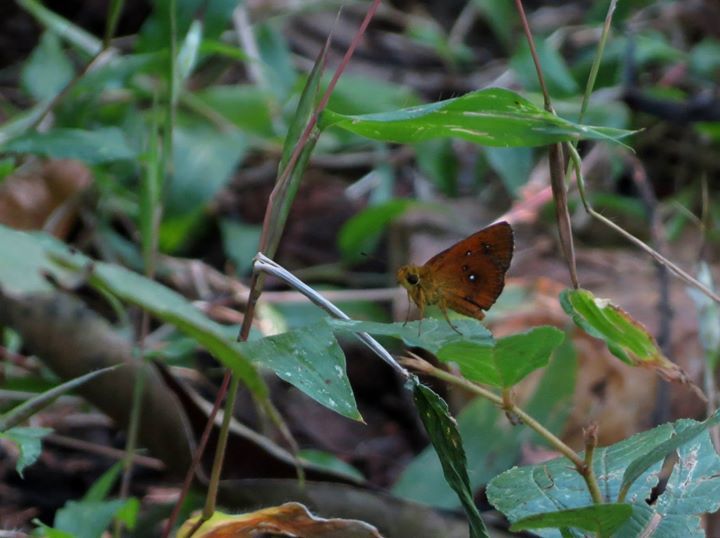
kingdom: Animalia
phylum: Arthropoda
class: Insecta
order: Lepidoptera
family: Hesperiidae
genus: Iambrix
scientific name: Iambrix salsala
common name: Chestnut bob
